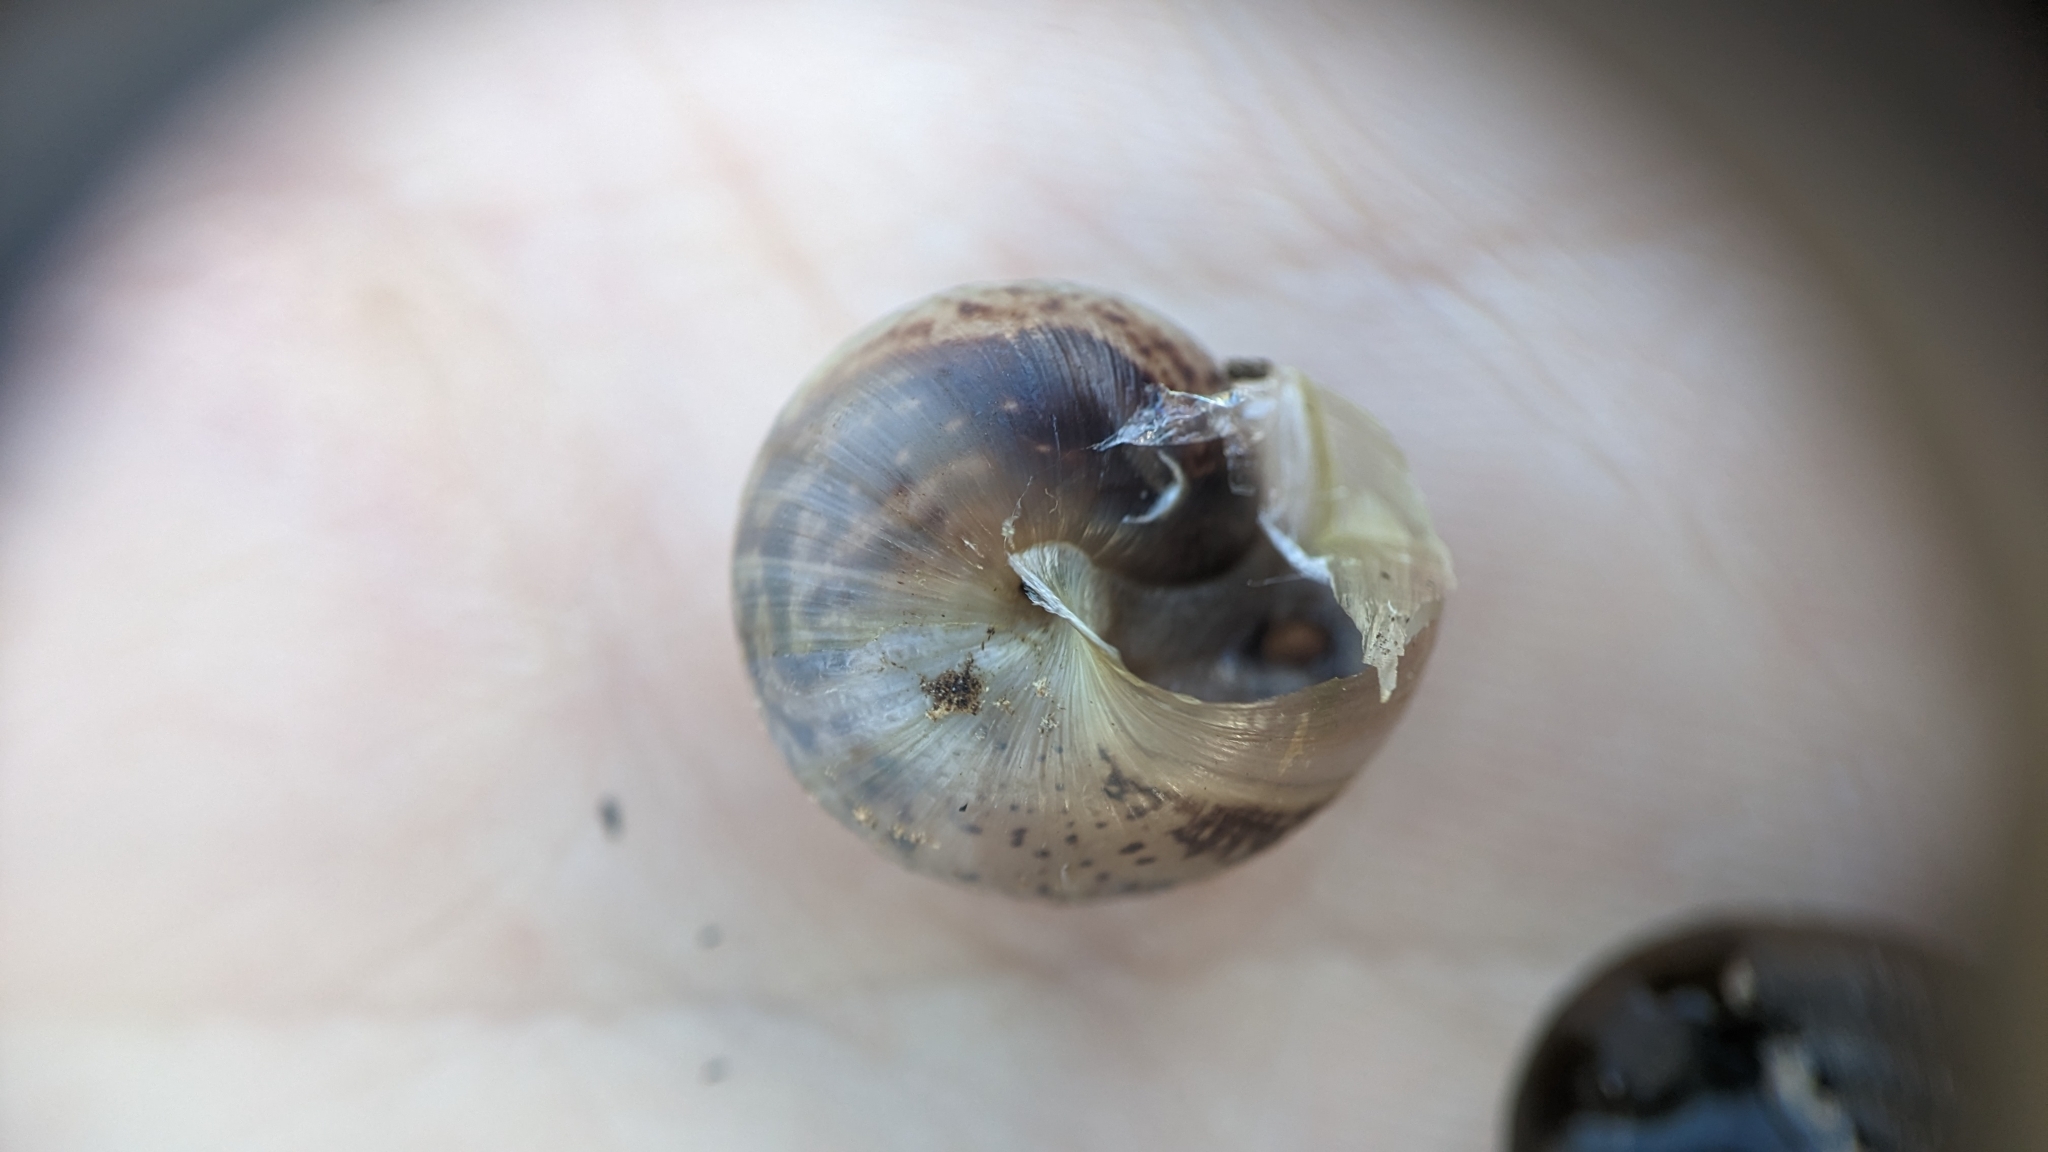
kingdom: Animalia
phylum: Mollusca
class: Gastropoda
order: Stylommatophora
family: Hygromiidae
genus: Monacha
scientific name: Monacha cantiana
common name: Kentish snail
